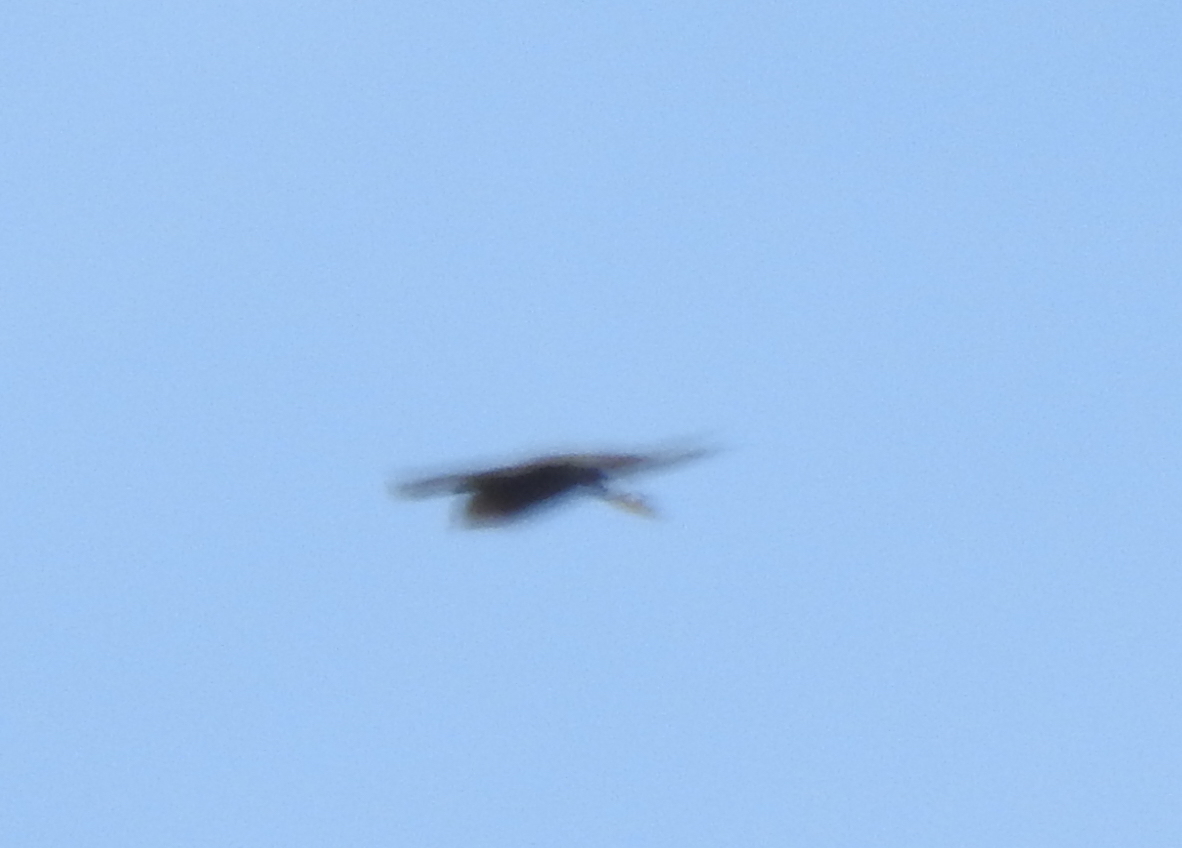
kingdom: Animalia
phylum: Chordata
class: Aves
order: Falconiformes
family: Falconidae
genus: Falco
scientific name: Falco peregrinus
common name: Peregrine falcon
